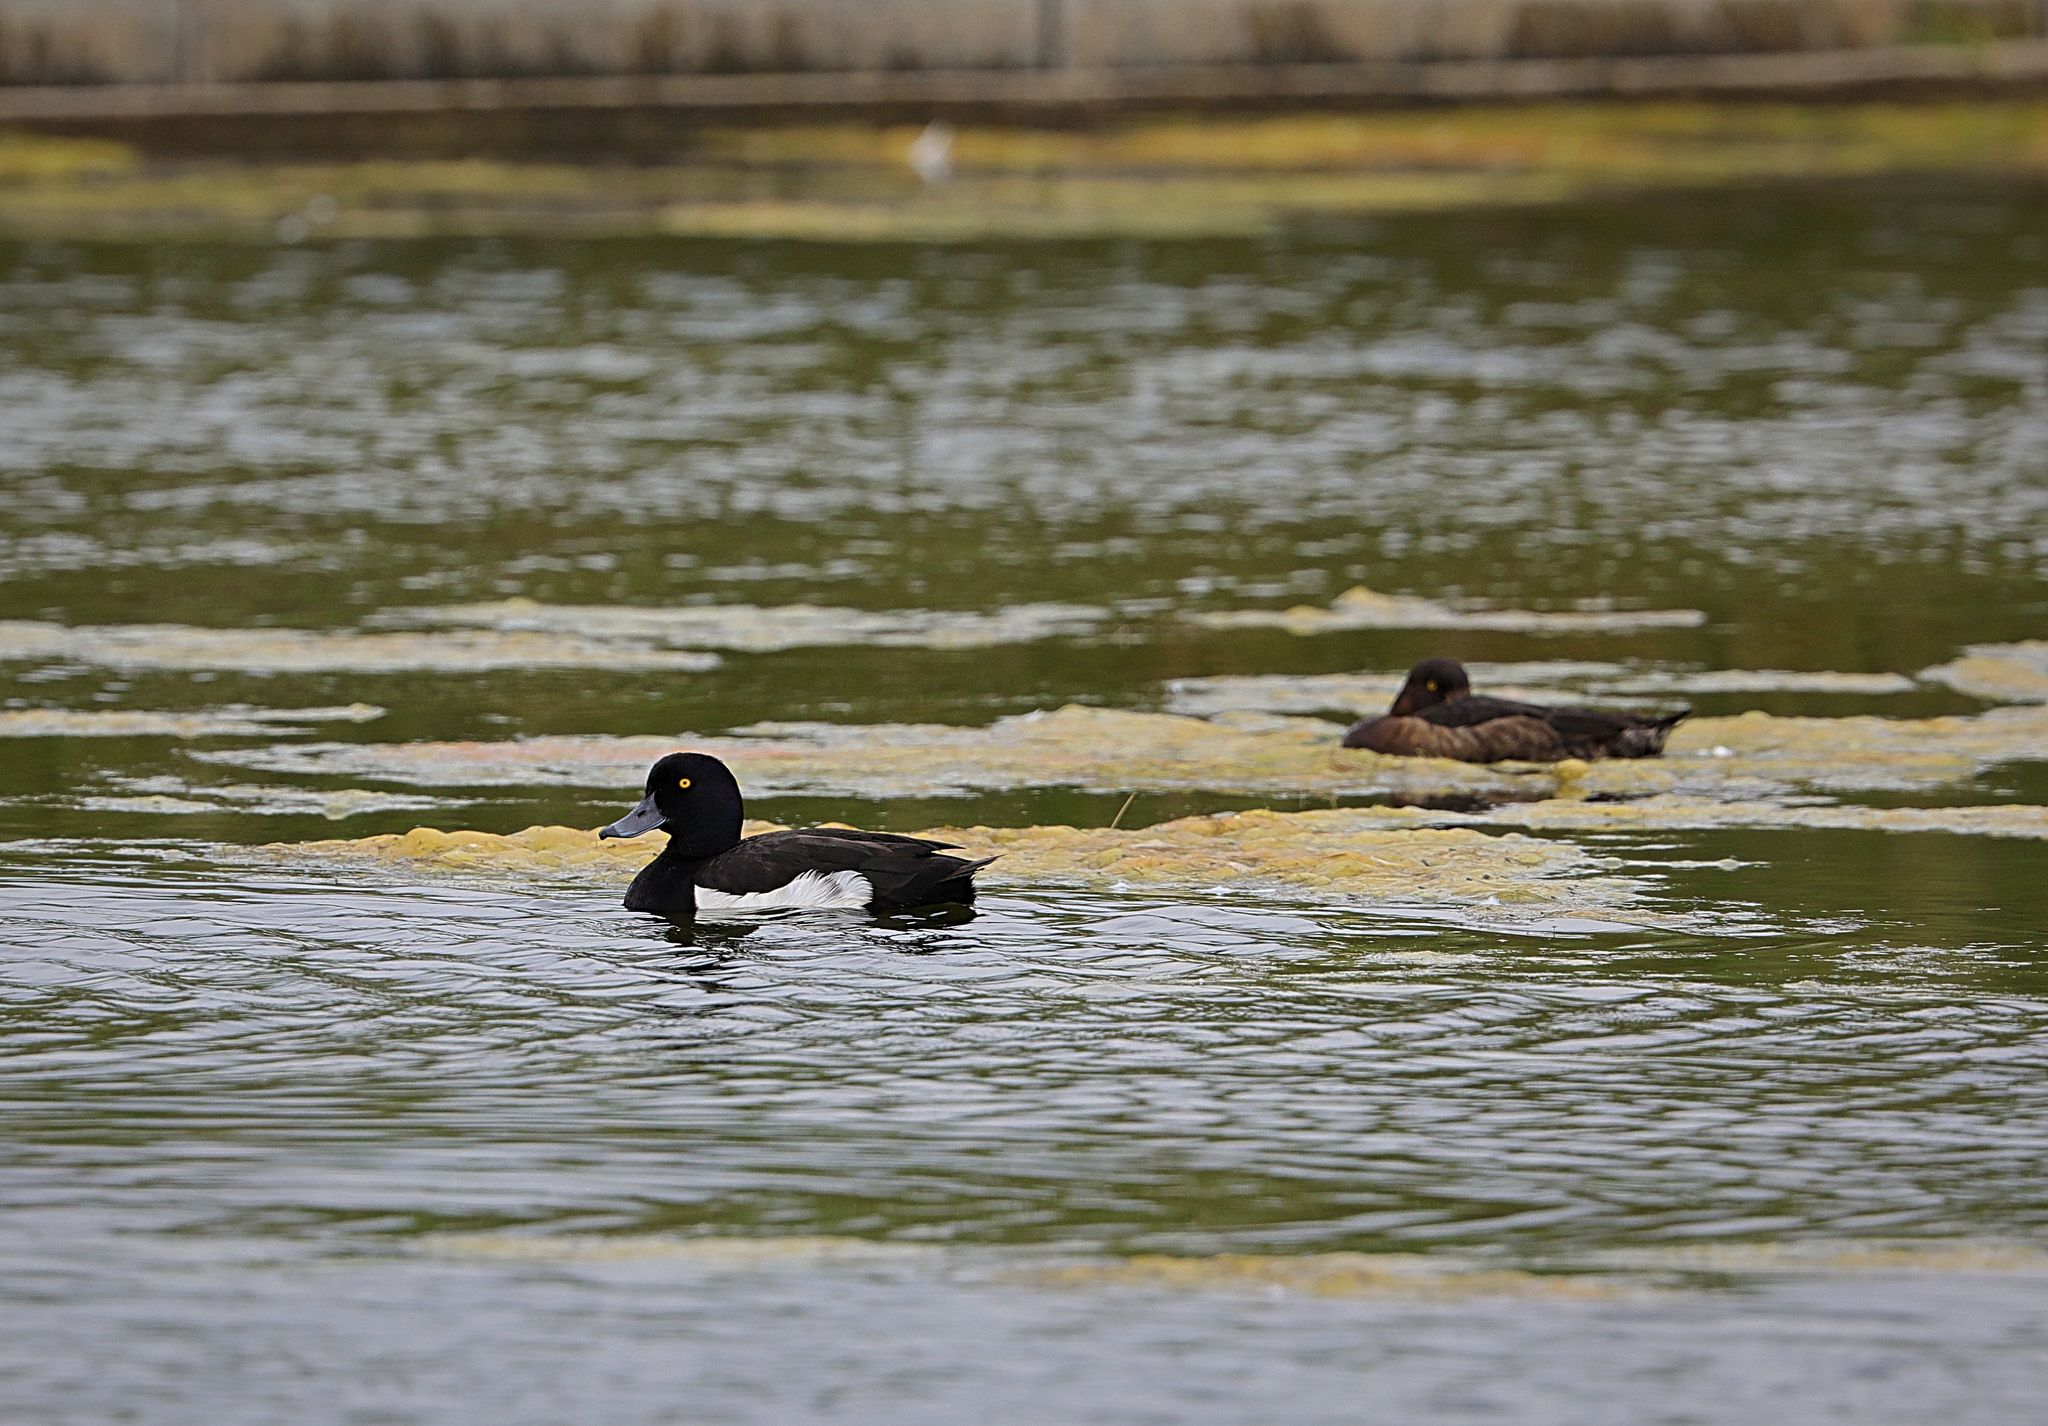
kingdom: Animalia
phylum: Chordata
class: Aves
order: Anseriformes
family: Anatidae
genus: Aythya
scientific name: Aythya fuligula
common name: Tufted duck
